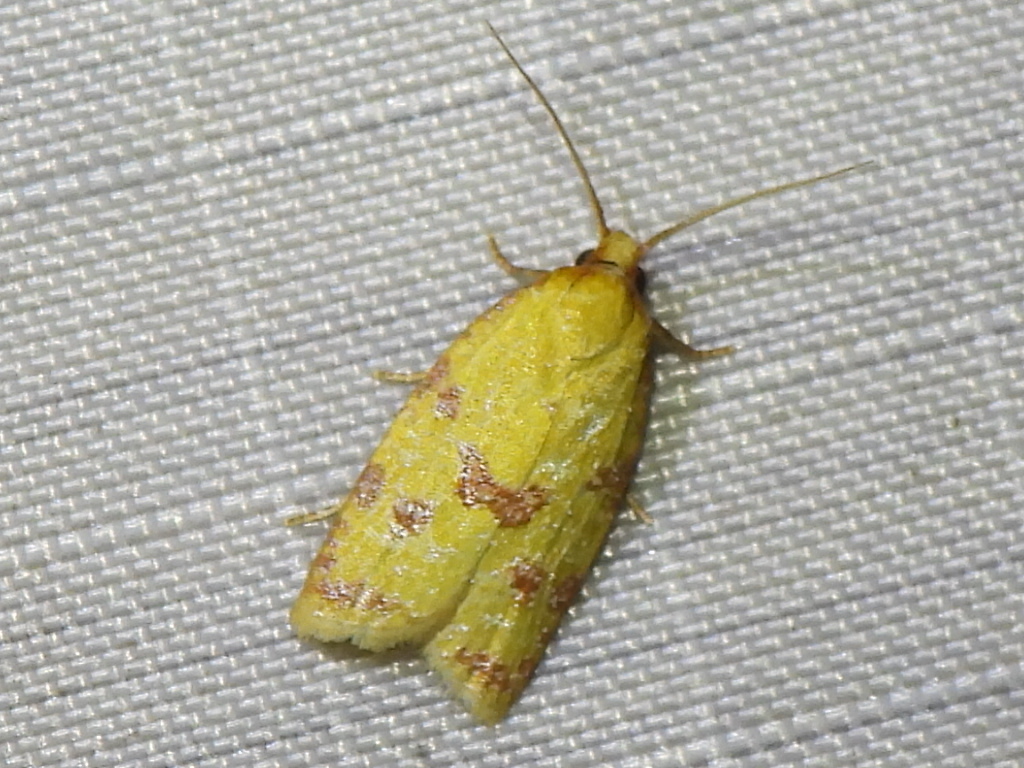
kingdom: Animalia
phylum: Arthropoda
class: Insecta
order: Lepidoptera
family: Tortricidae
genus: Sparganothis
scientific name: Sparganothis sulfureana
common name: Sparganothis fruitworm moth
